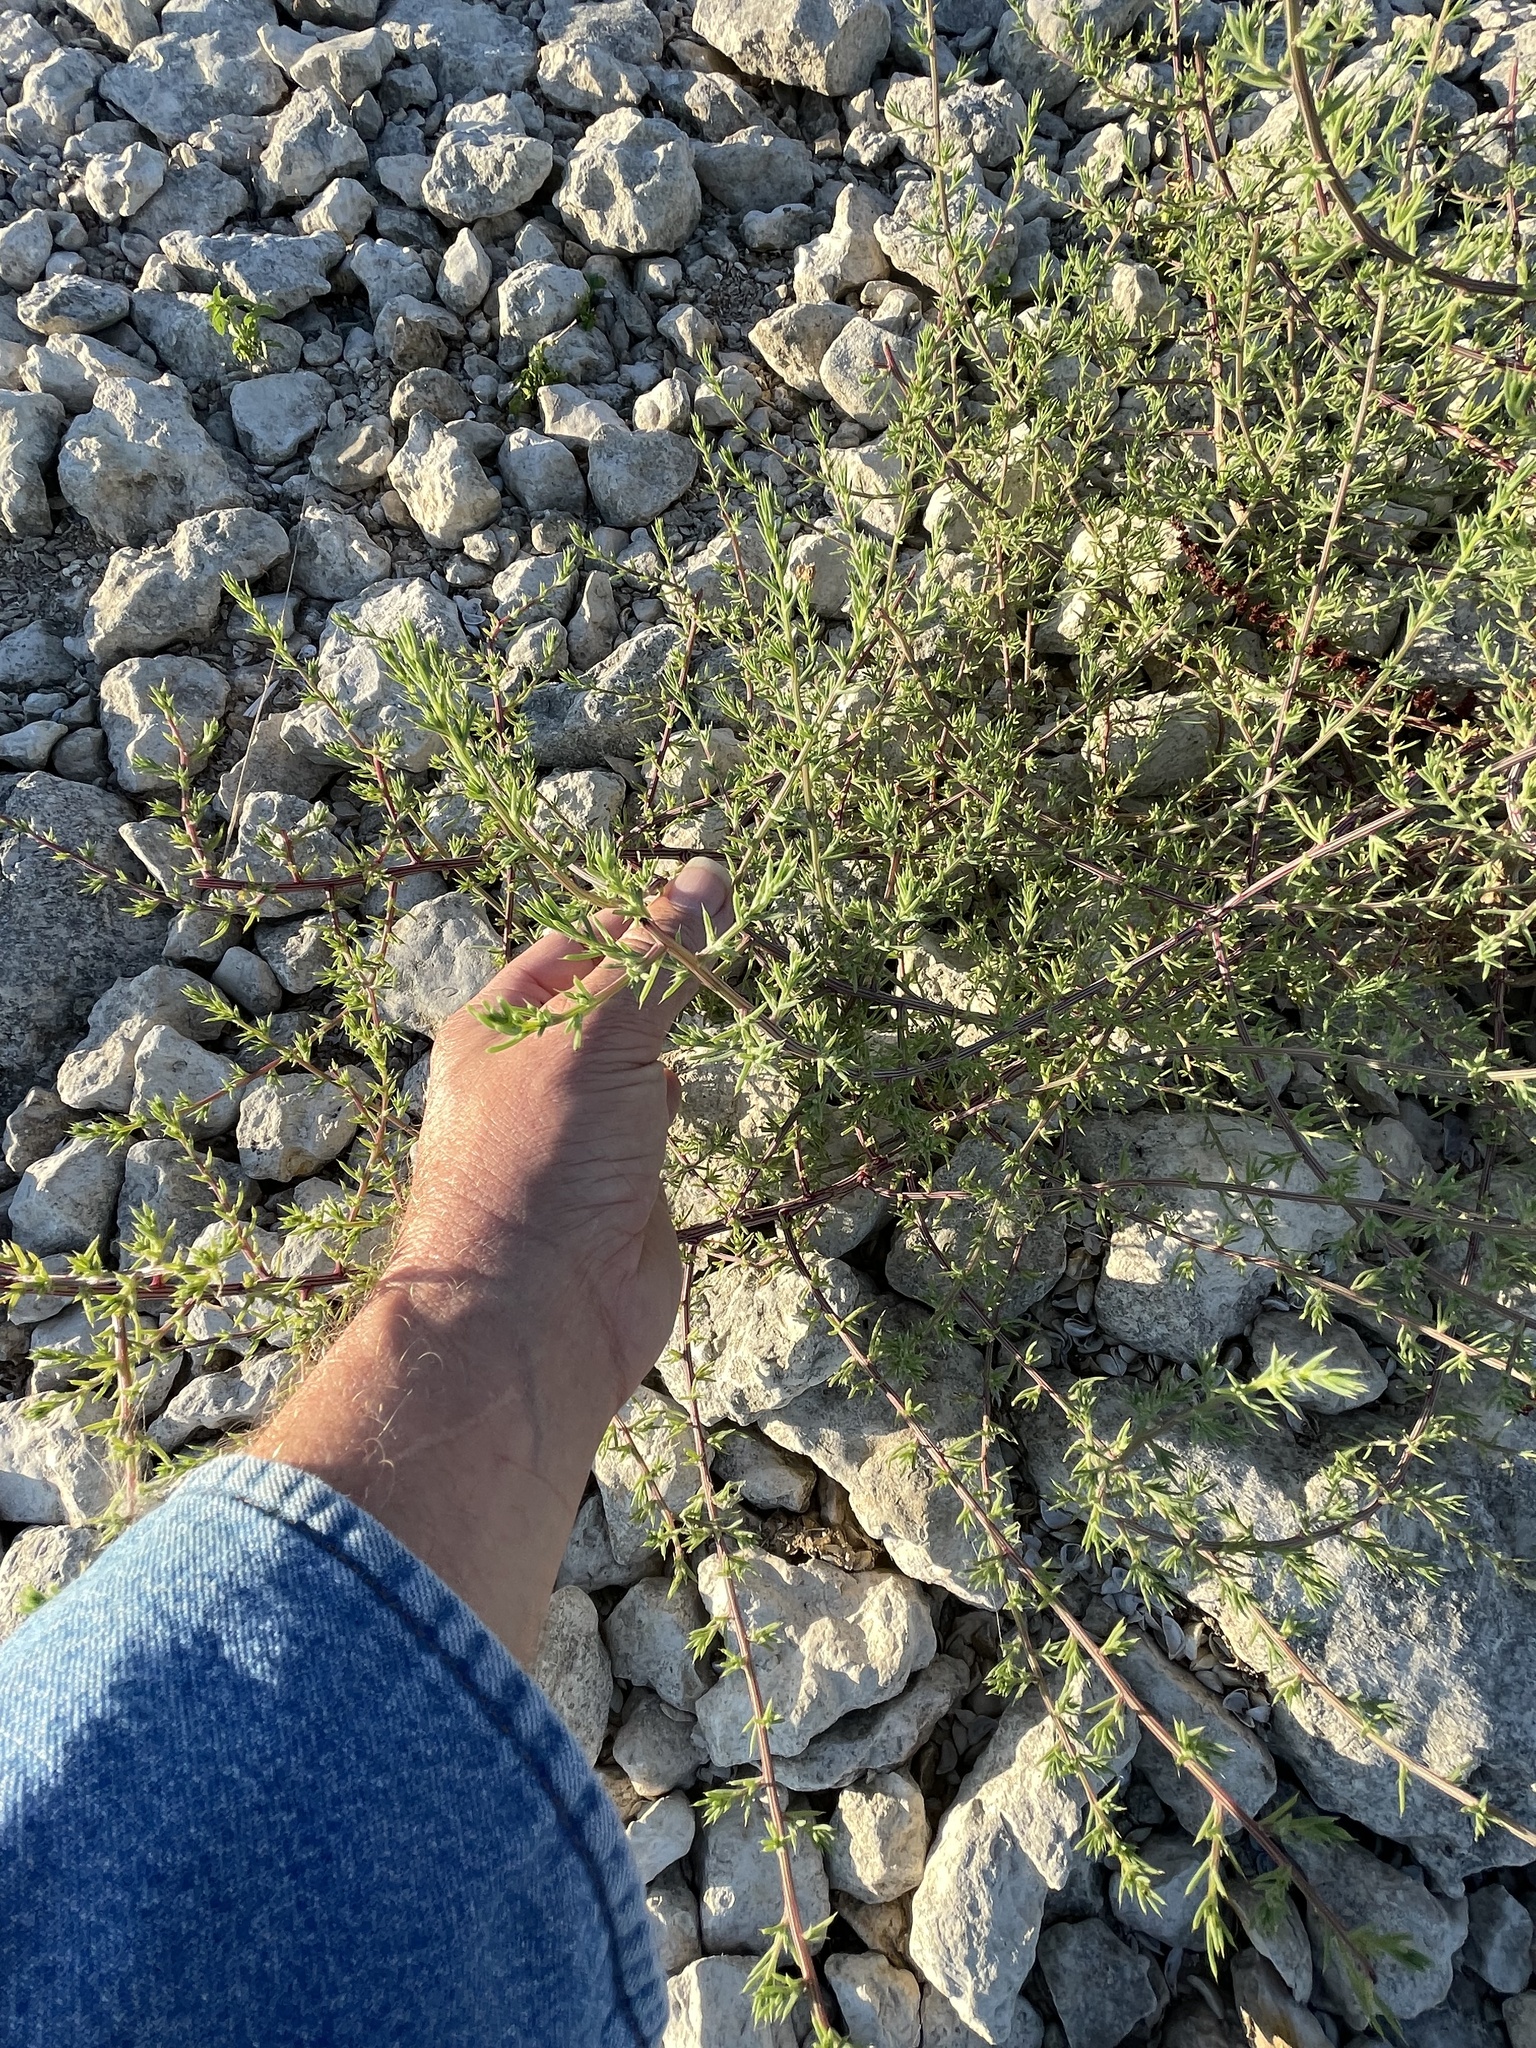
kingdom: Plantae
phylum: Tracheophyta
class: Magnoliopsida
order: Caryophyllales
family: Amaranthaceae
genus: Salsola
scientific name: Salsola tragus
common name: Prickly russian thistle
